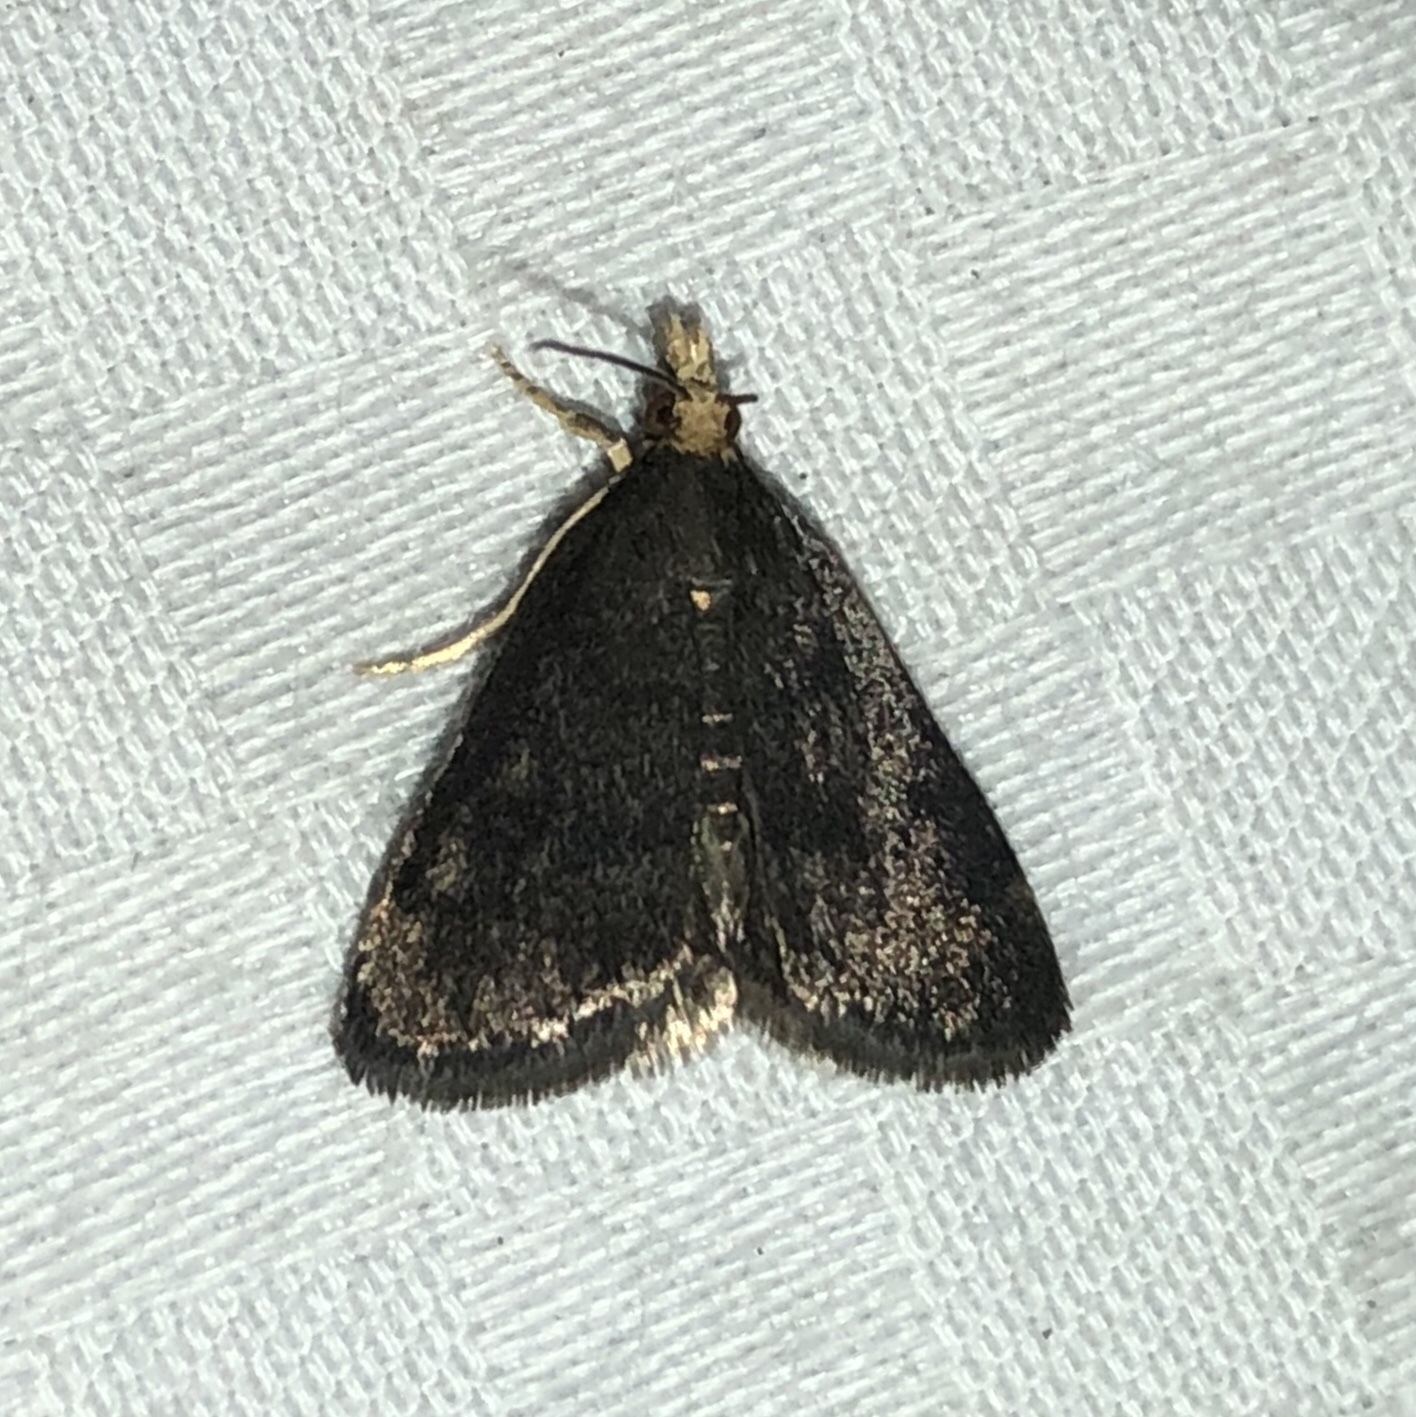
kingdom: Animalia
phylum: Arthropoda
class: Insecta
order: Lepidoptera
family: Crambidae
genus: Pyrausta
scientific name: Pyrausta merrickalis
